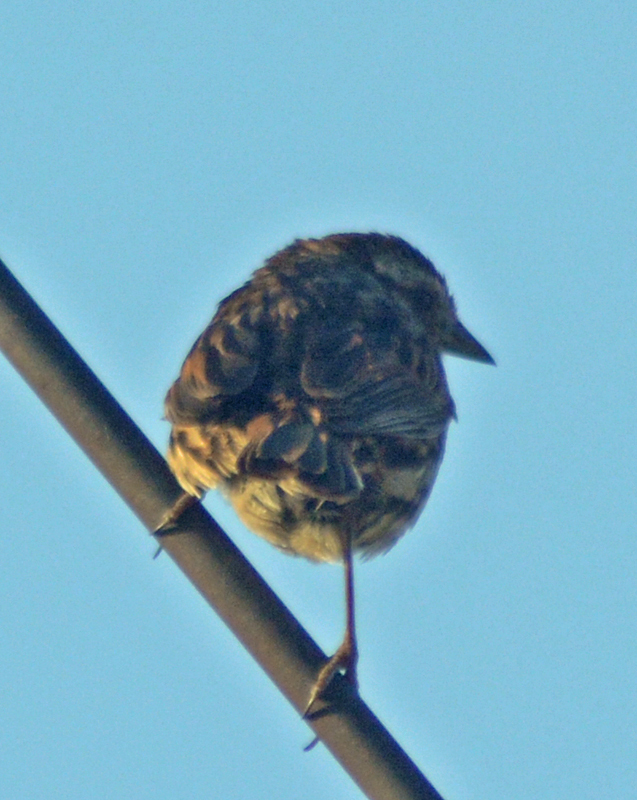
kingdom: Animalia
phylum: Chordata
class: Aves
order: Passeriformes
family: Passerellidae
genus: Melospiza
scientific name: Melospiza melodia
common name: Song sparrow
